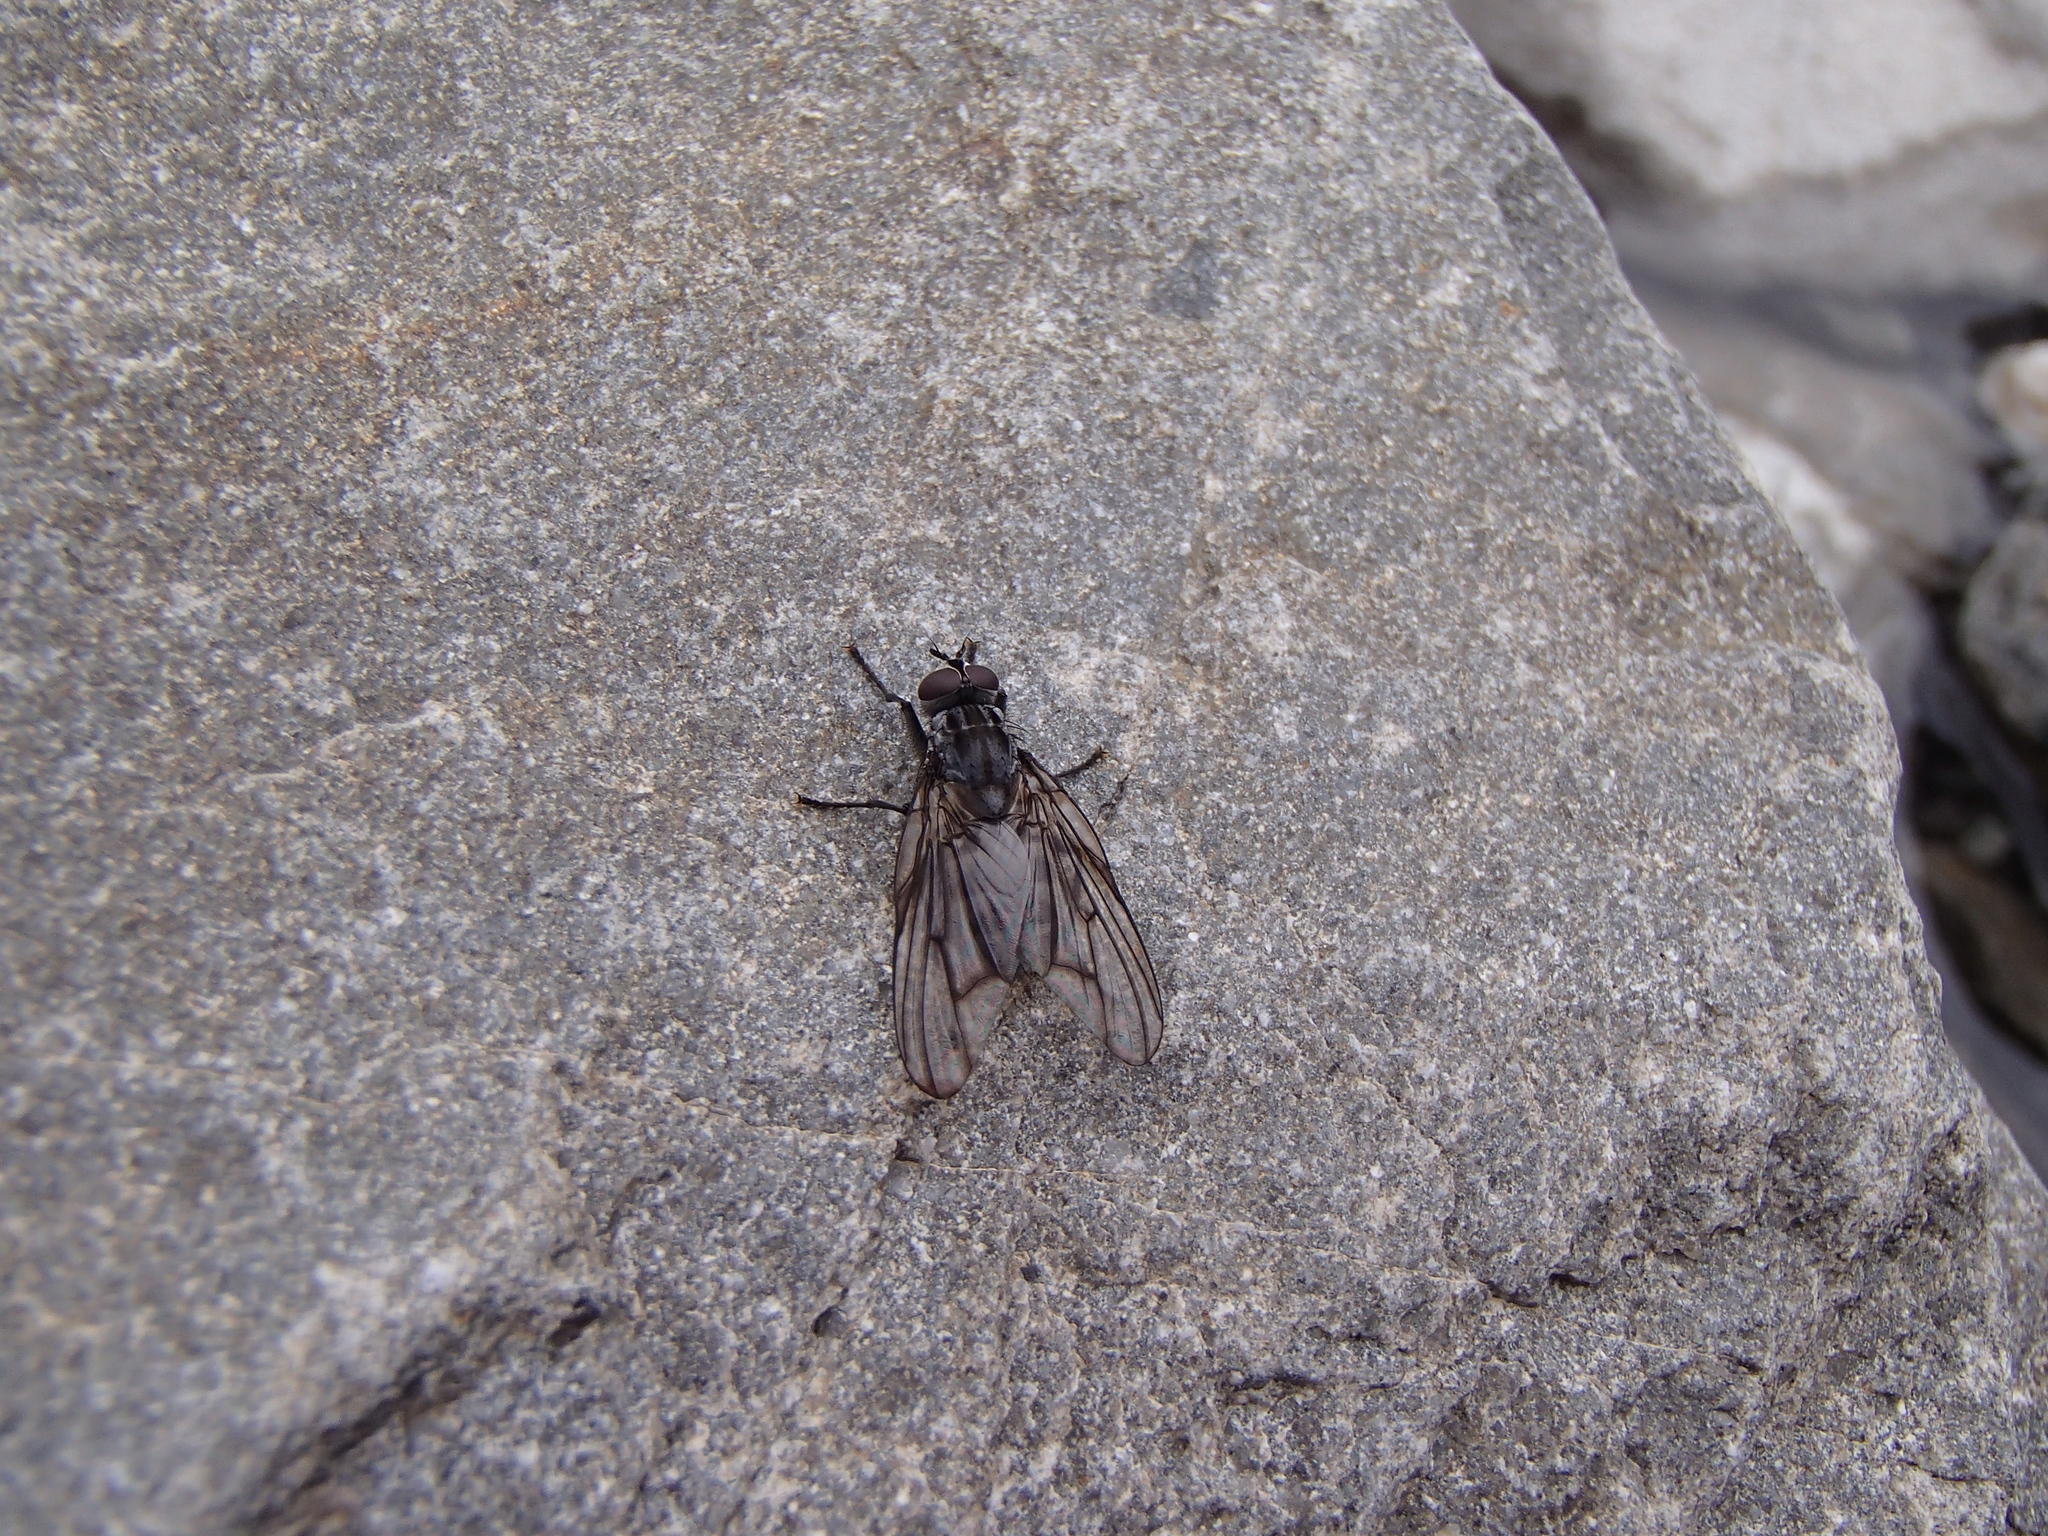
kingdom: Animalia
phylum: Arthropoda
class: Insecta
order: Diptera
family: Muscidae
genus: Exsul
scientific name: Exsul tenuis
